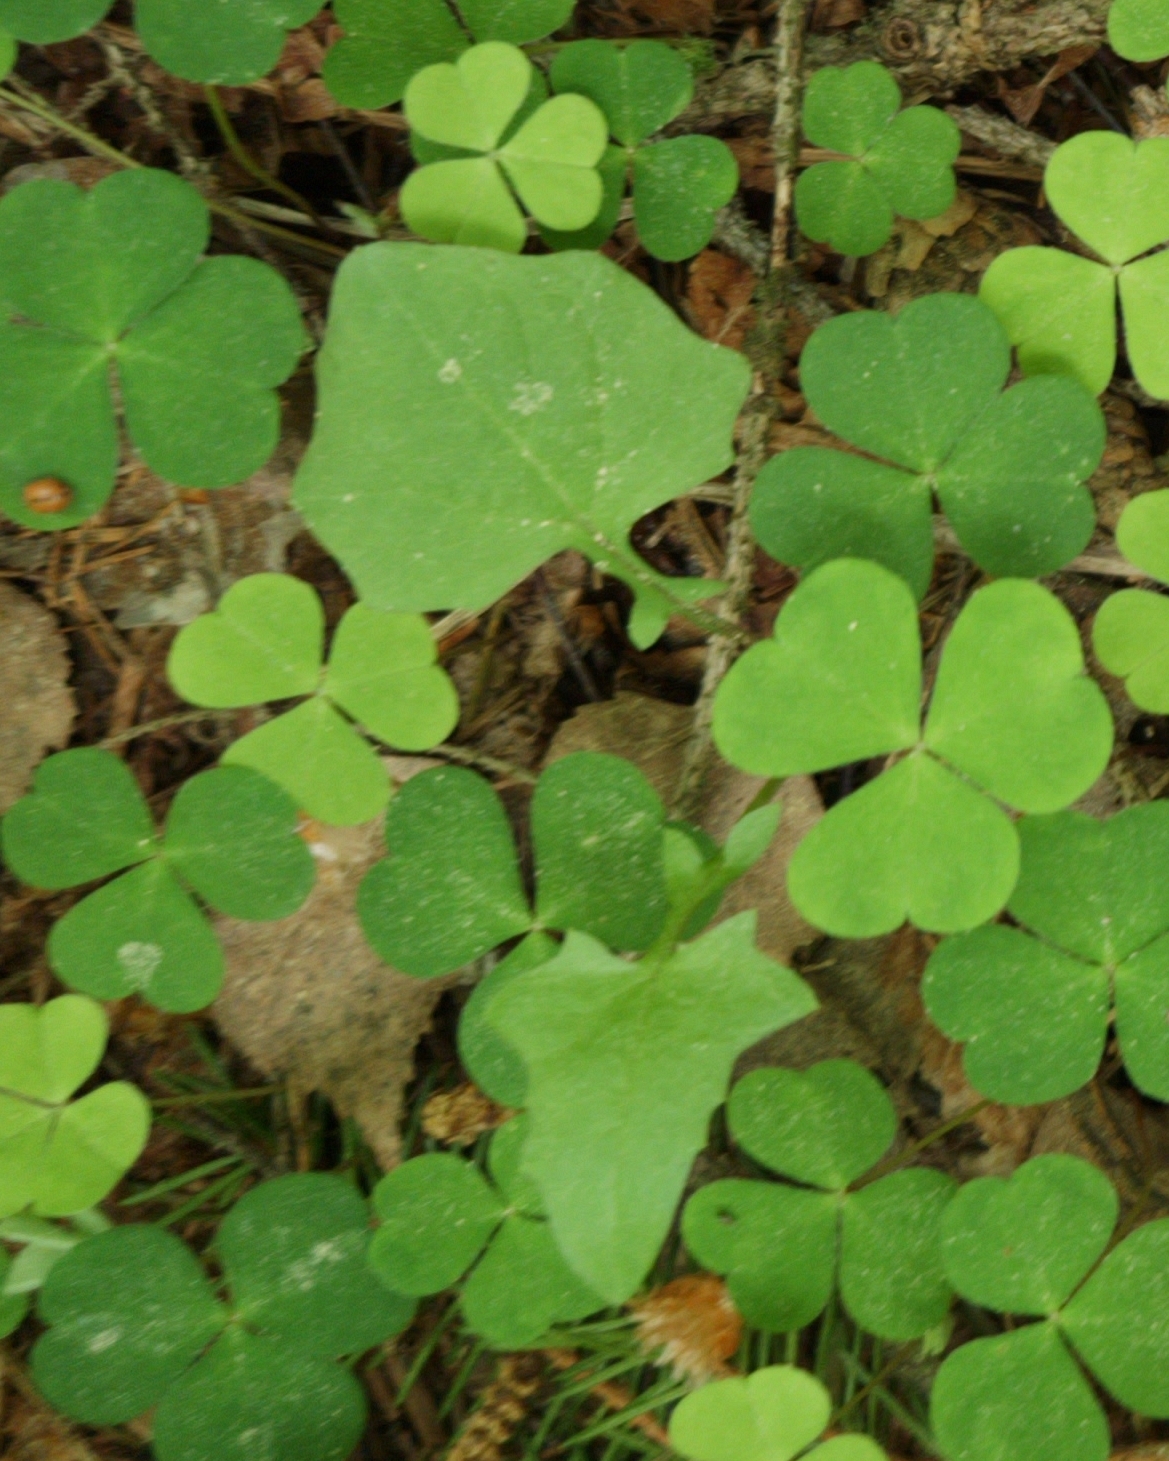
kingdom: Plantae
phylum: Tracheophyta
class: Magnoliopsida
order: Asterales
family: Asteraceae
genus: Mycelis
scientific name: Mycelis muralis
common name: Wall lettuce
